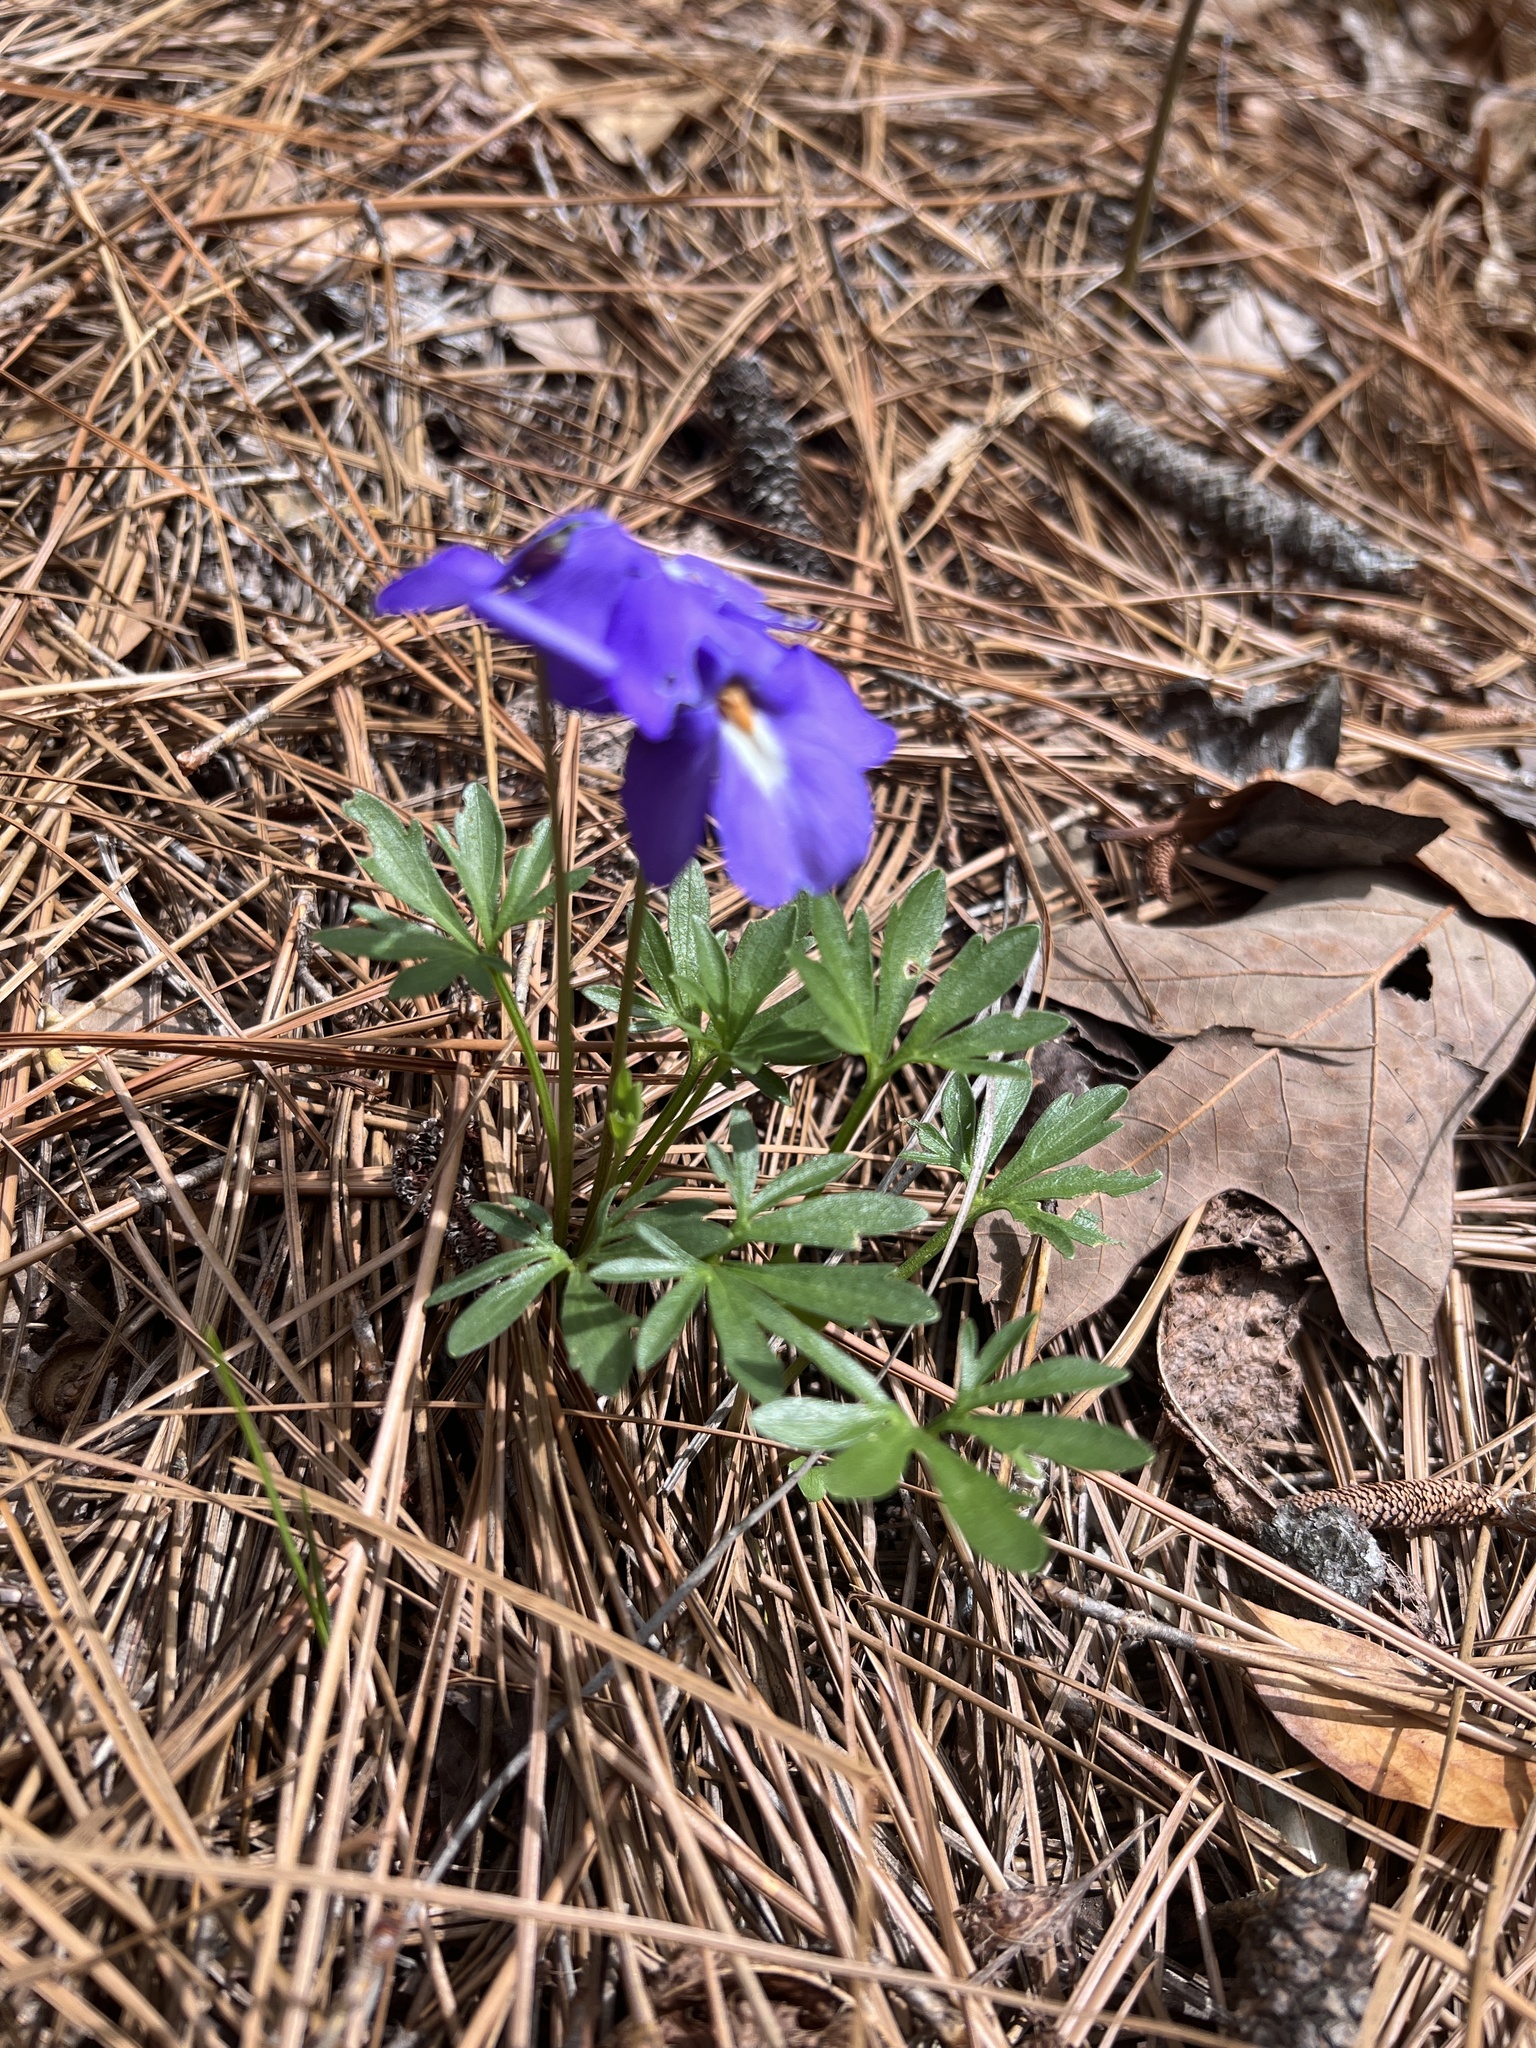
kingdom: Plantae
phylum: Tracheophyta
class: Magnoliopsida
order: Malpighiales
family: Violaceae
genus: Viola
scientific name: Viola pedata
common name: Pansy violet
